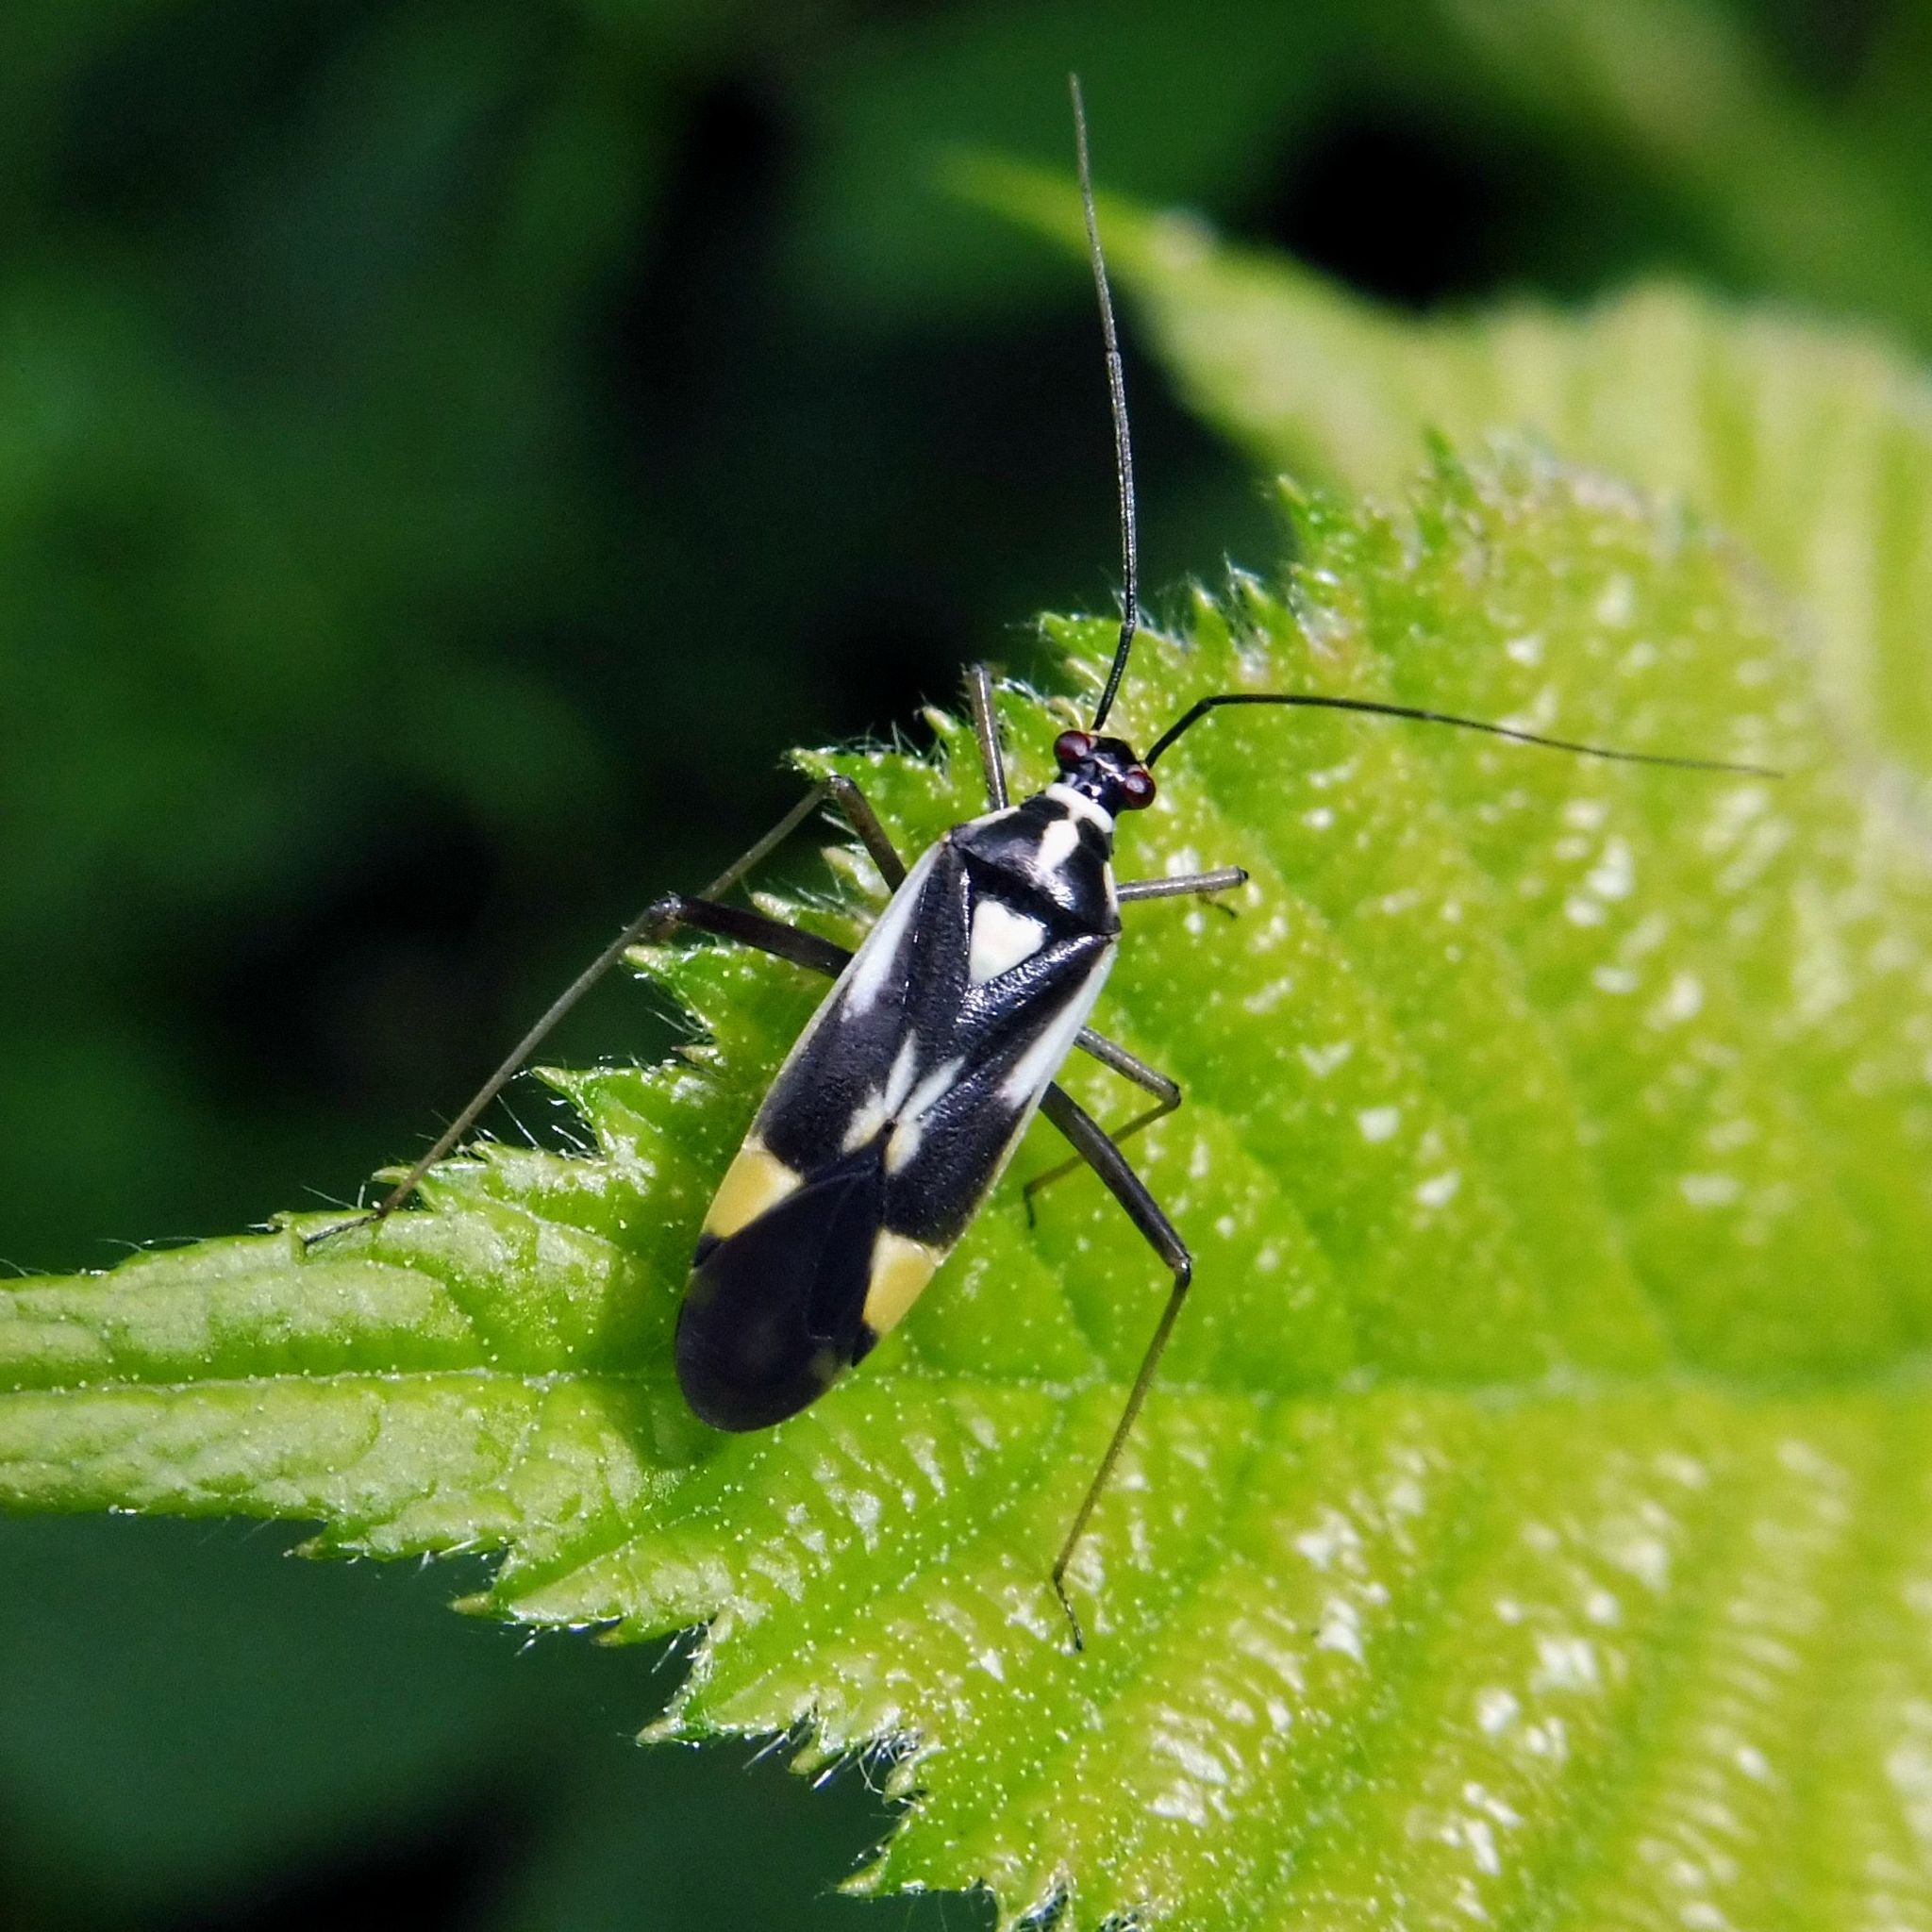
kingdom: Animalia
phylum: Arthropoda
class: Insecta
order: Hemiptera
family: Miridae
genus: Grypocoris
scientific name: Grypocoris stysi
